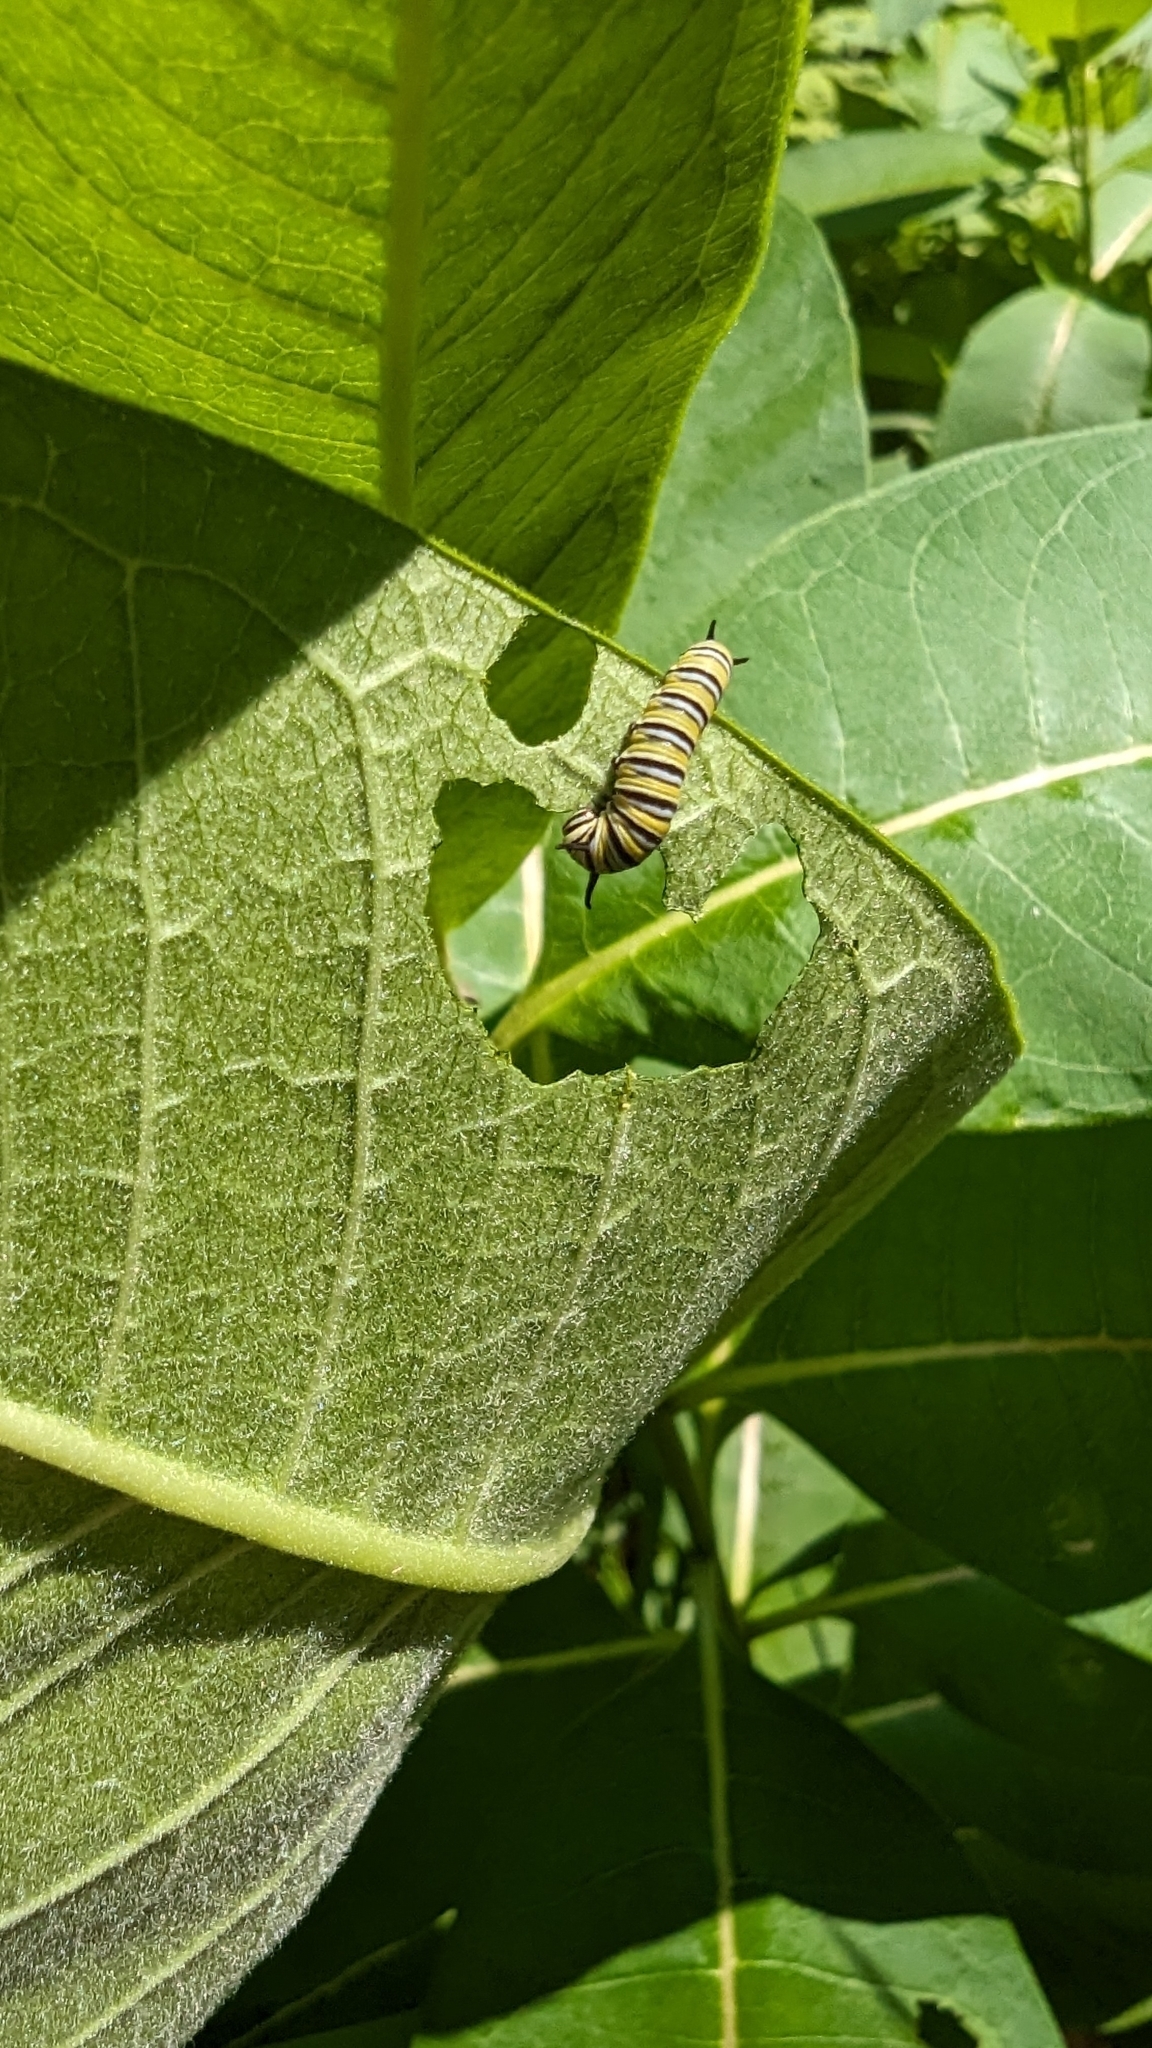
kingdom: Animalia
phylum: Arthropoda
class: Insecta
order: Lepidoptera
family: Nymphalidae
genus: Danaus
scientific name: Danaus plexippus
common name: Monarch
